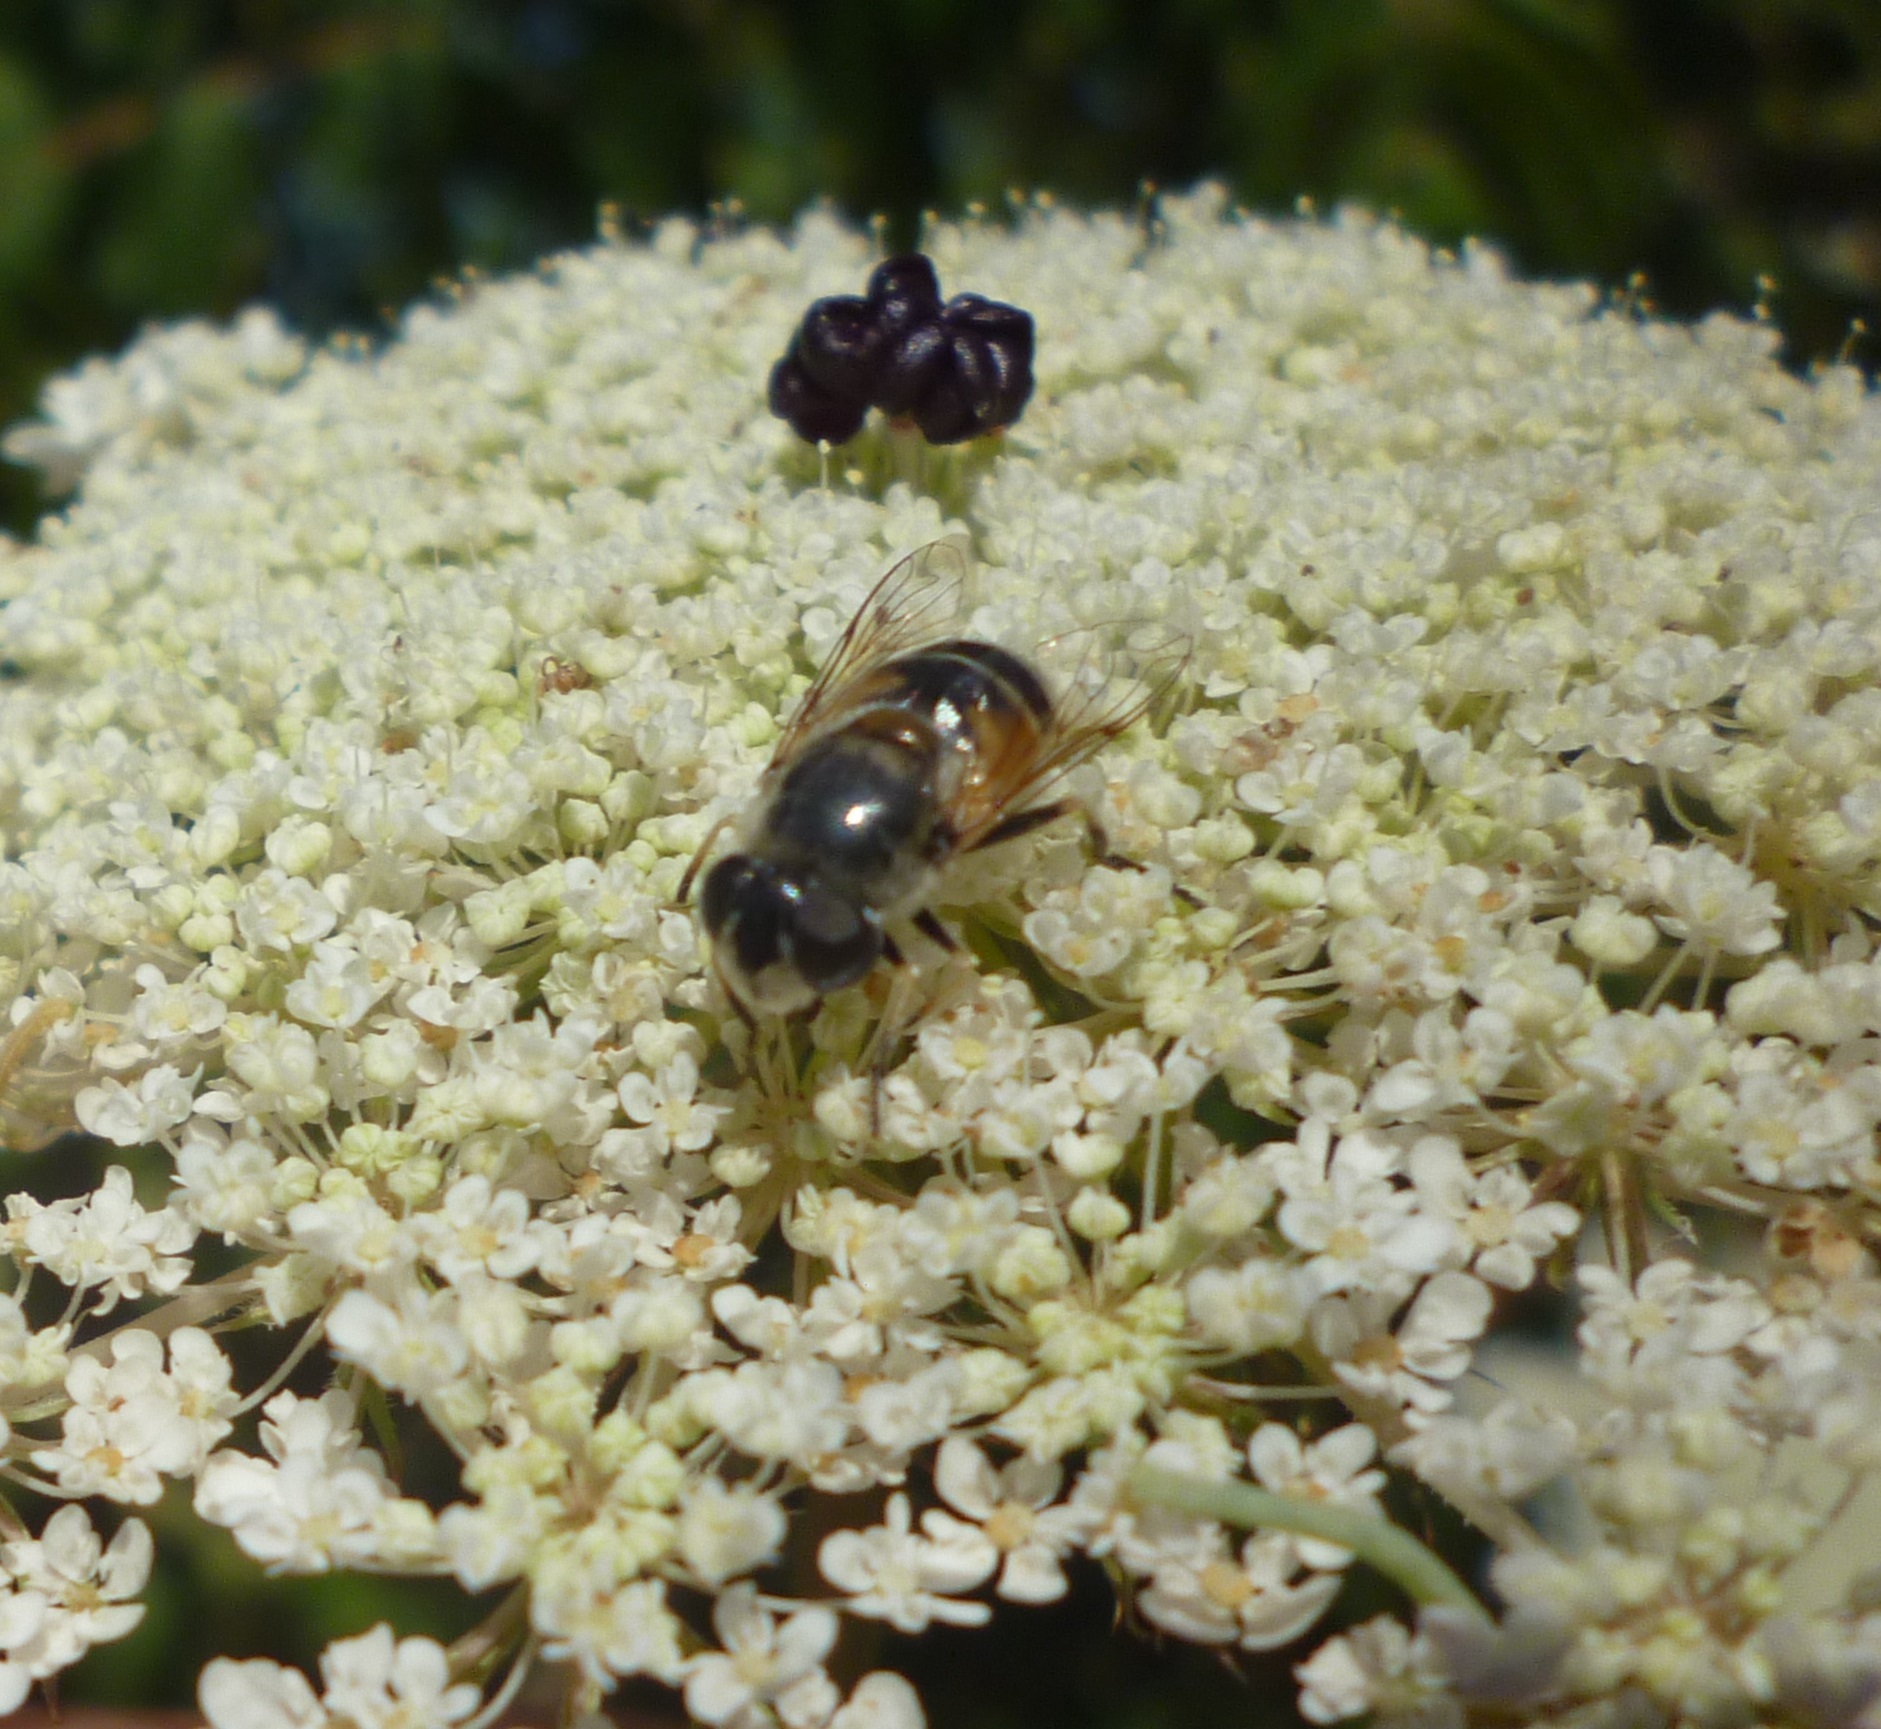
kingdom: Animalia
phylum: Arthropoda
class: Insecta
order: Diptera
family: Syrphidae
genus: Eristalis
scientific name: Eristalis arbustorum
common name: Hover fly
